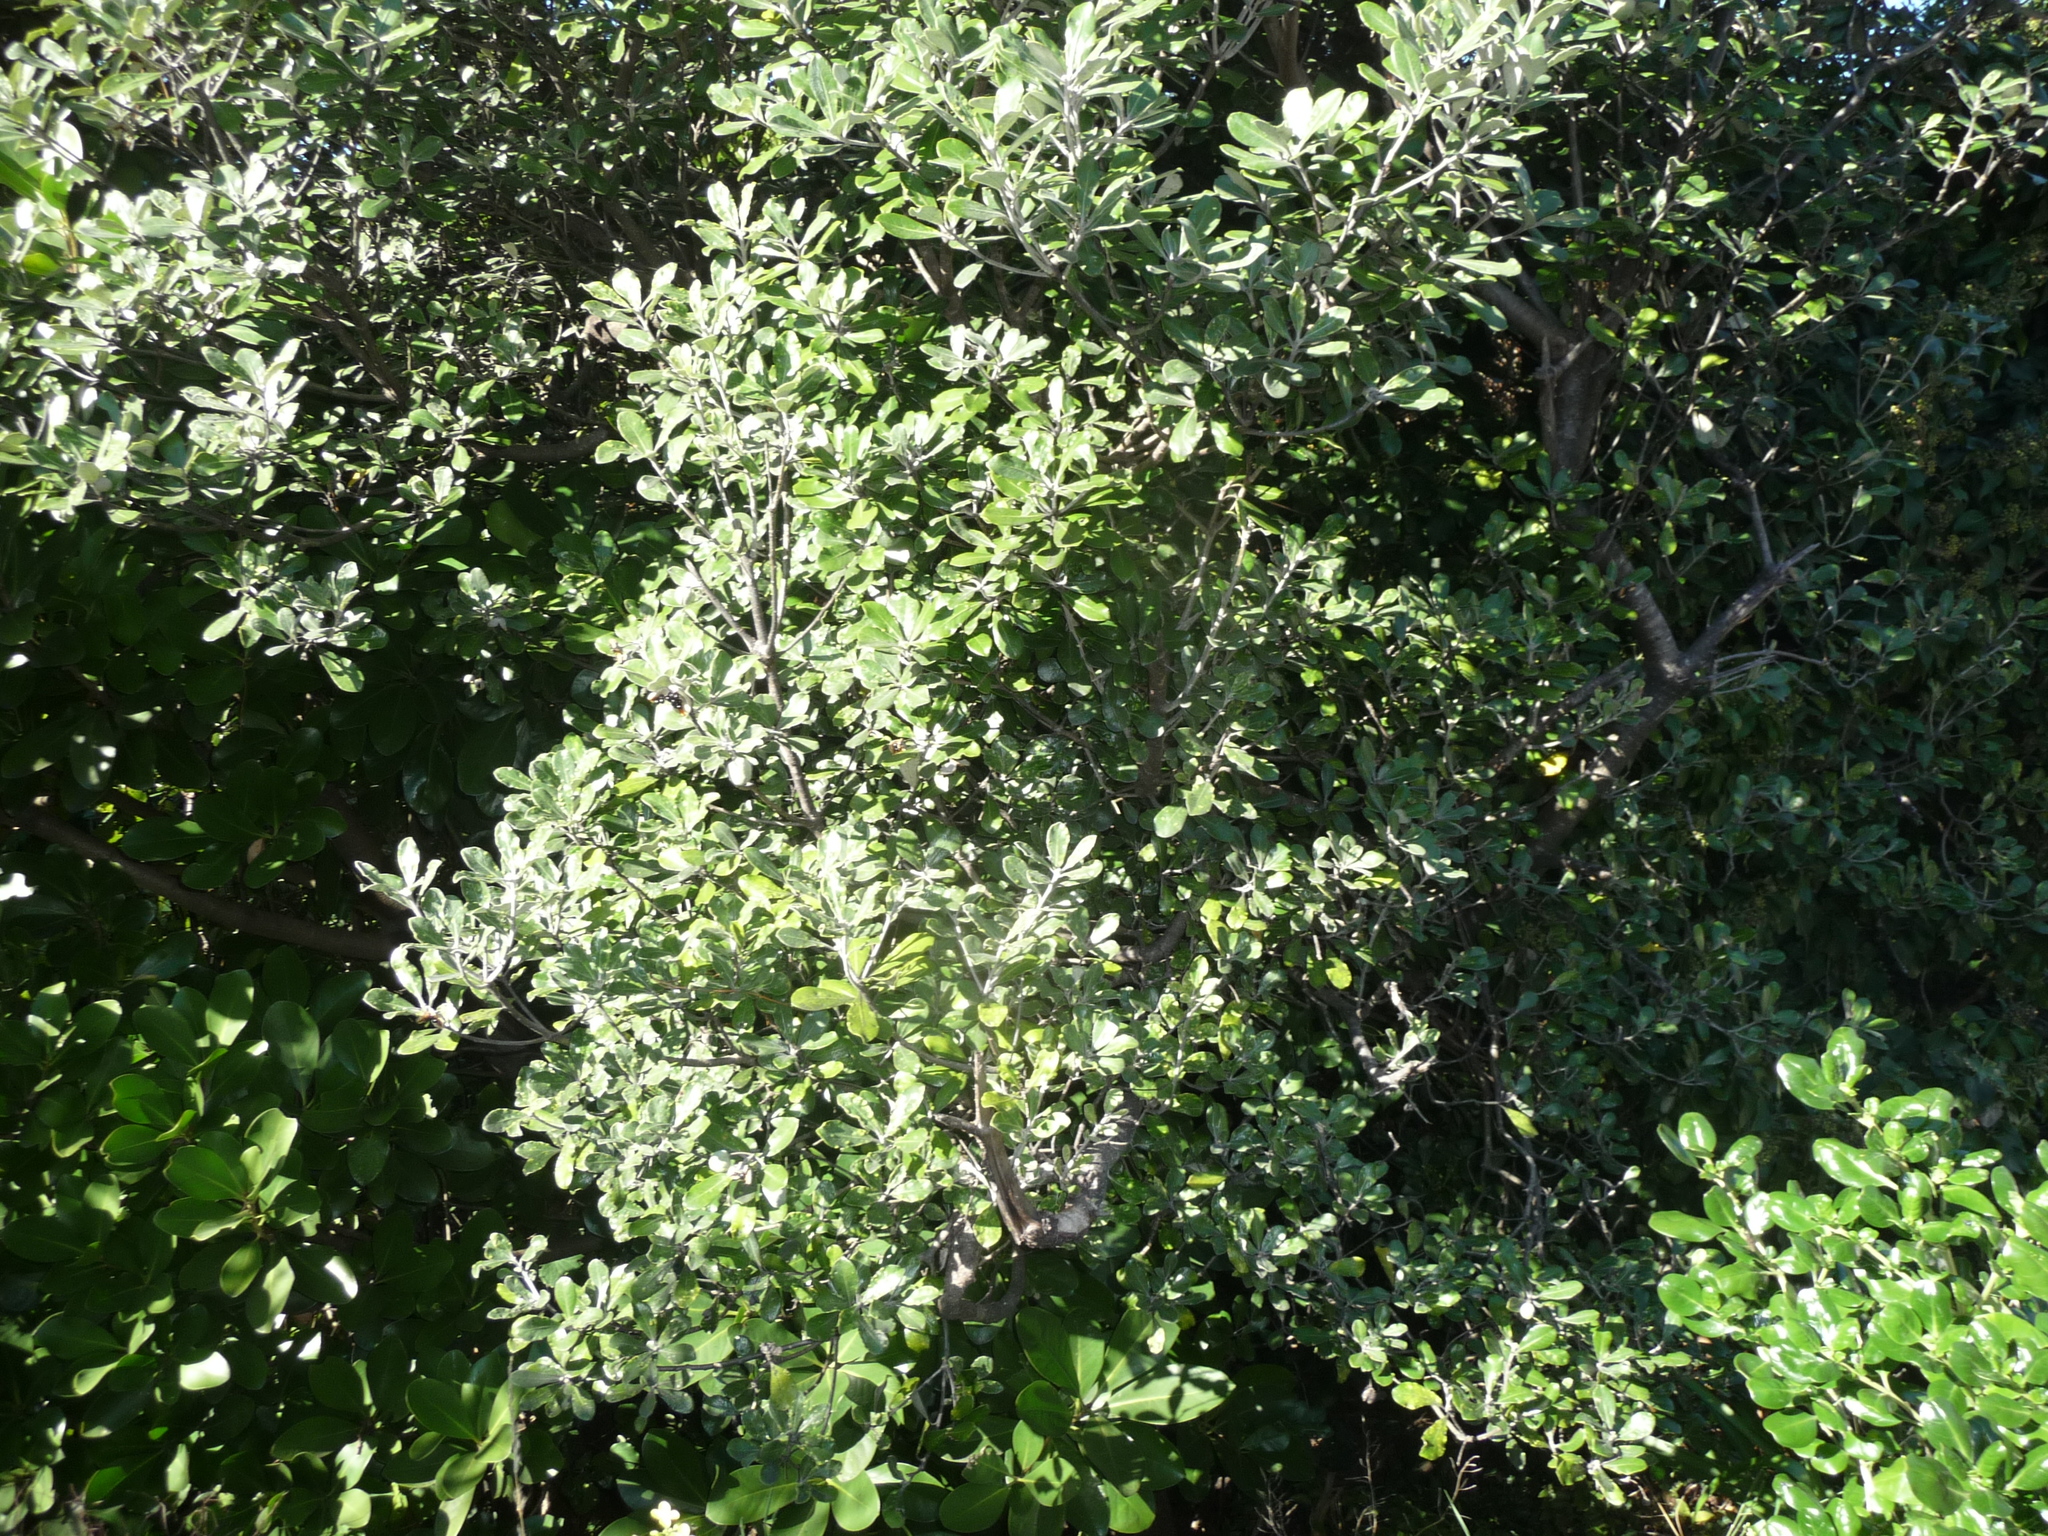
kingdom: Plantae
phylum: Tracheophyta
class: Magnoliopsida
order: Apiales
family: Pittosporaceae
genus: Pittosporum
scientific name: Pittosporum crassifolium
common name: Karo
